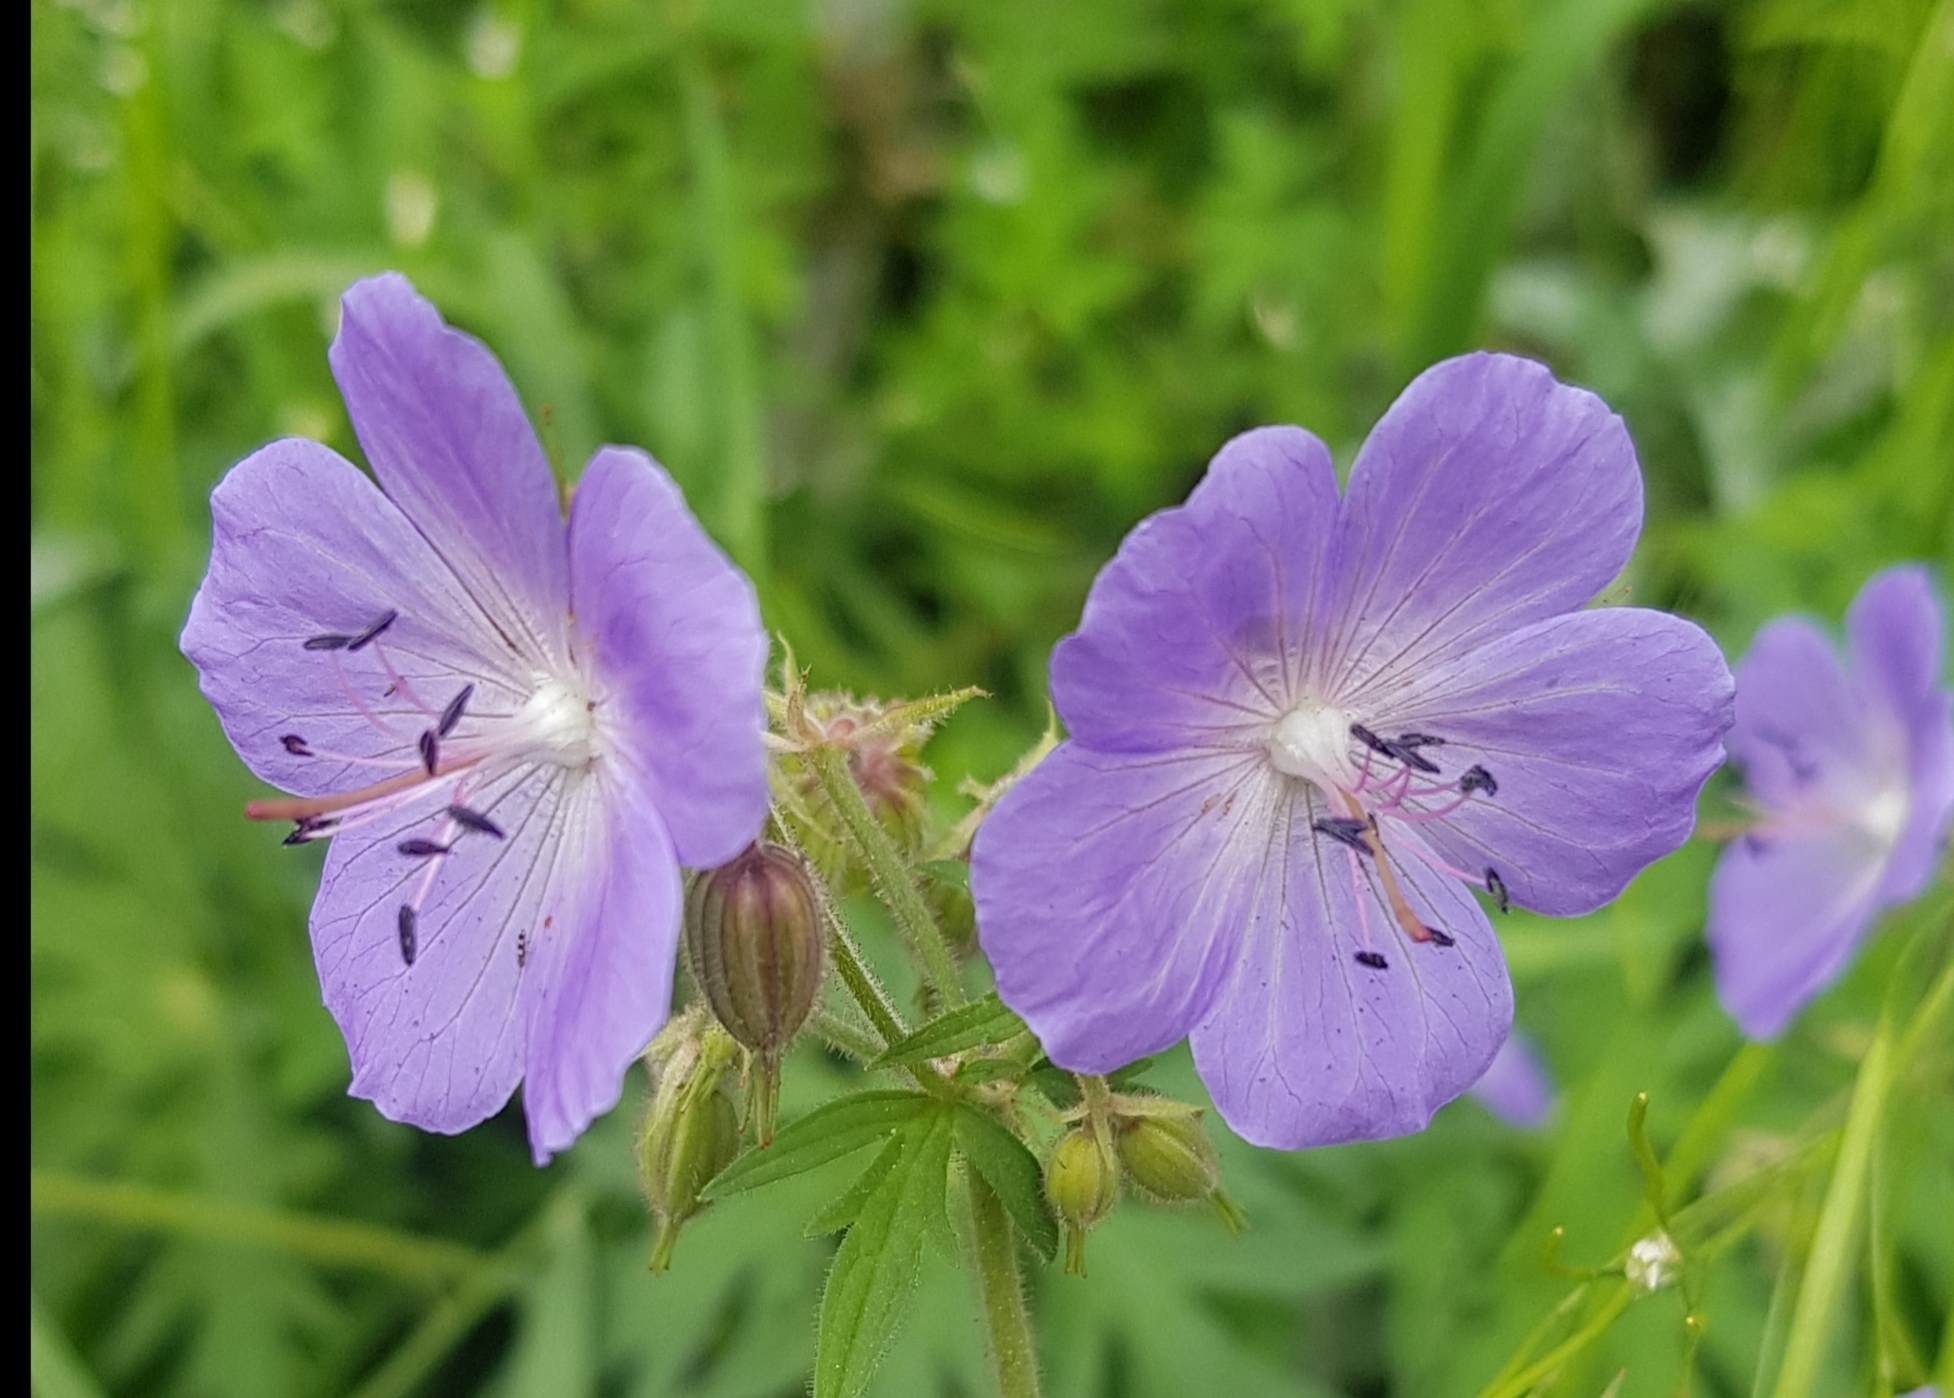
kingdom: Plantae
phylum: Tracheophyta
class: Magnoliopsida
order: Geraniales
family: Geraniaceae
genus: Geranium
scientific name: Geranium pratense
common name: Meadow crane's-bill
